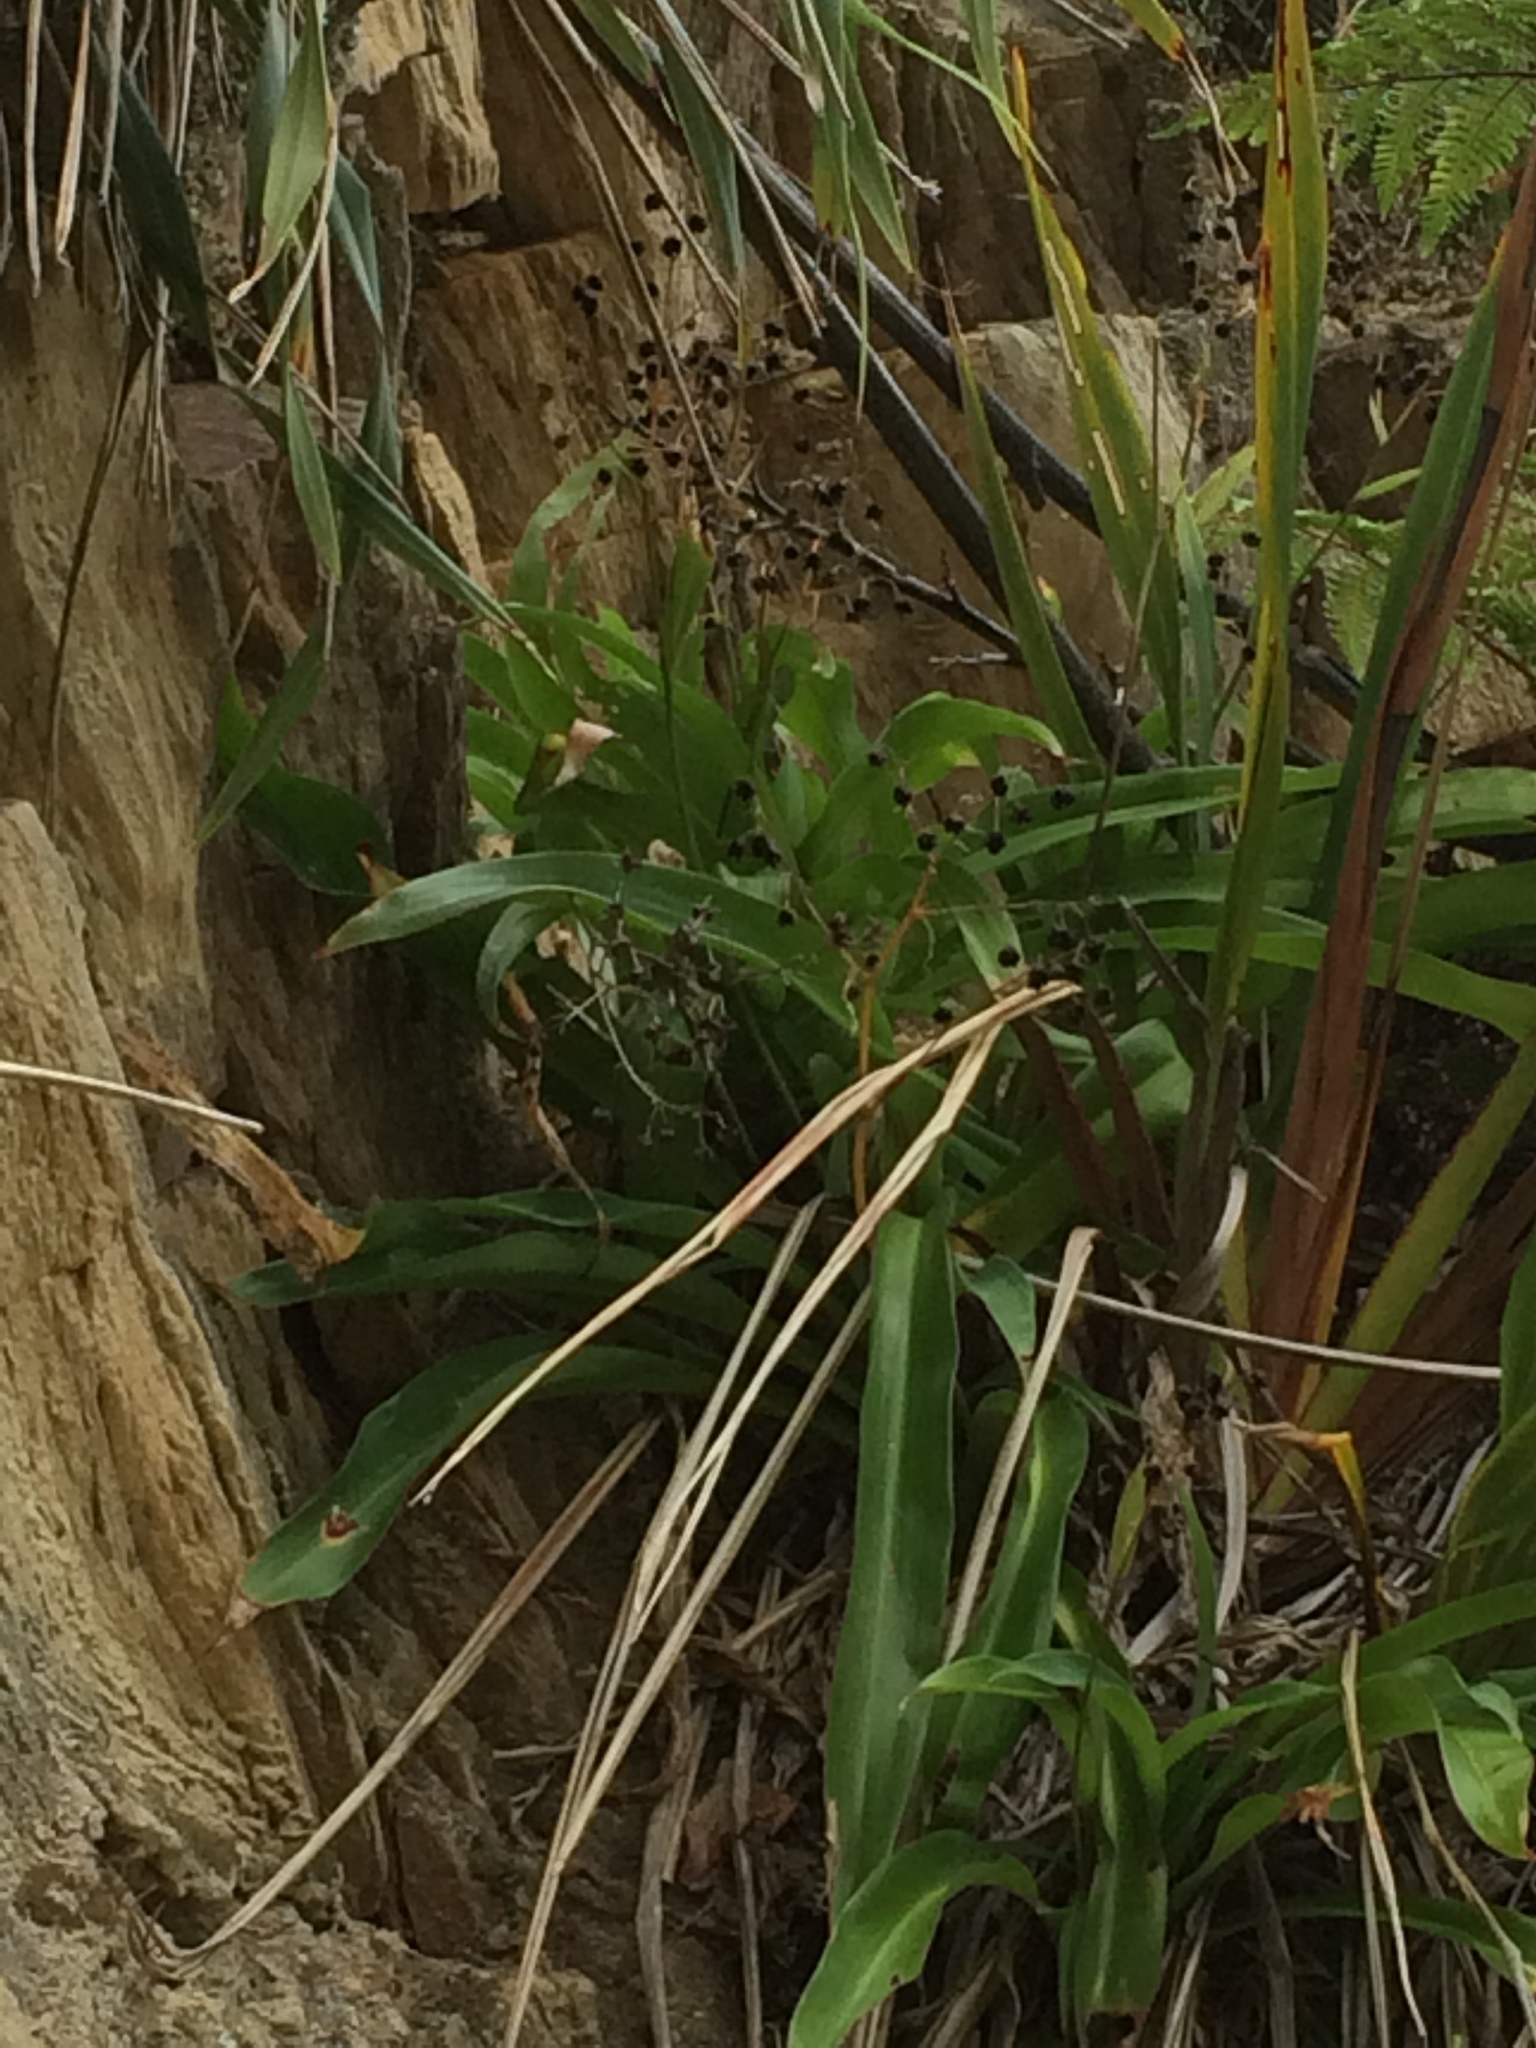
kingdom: Plantae
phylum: Tracheophyta
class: Liliopsida
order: Asparagales
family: Asparagaceae
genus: Arthropodium
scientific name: Arthropodium cirratum
